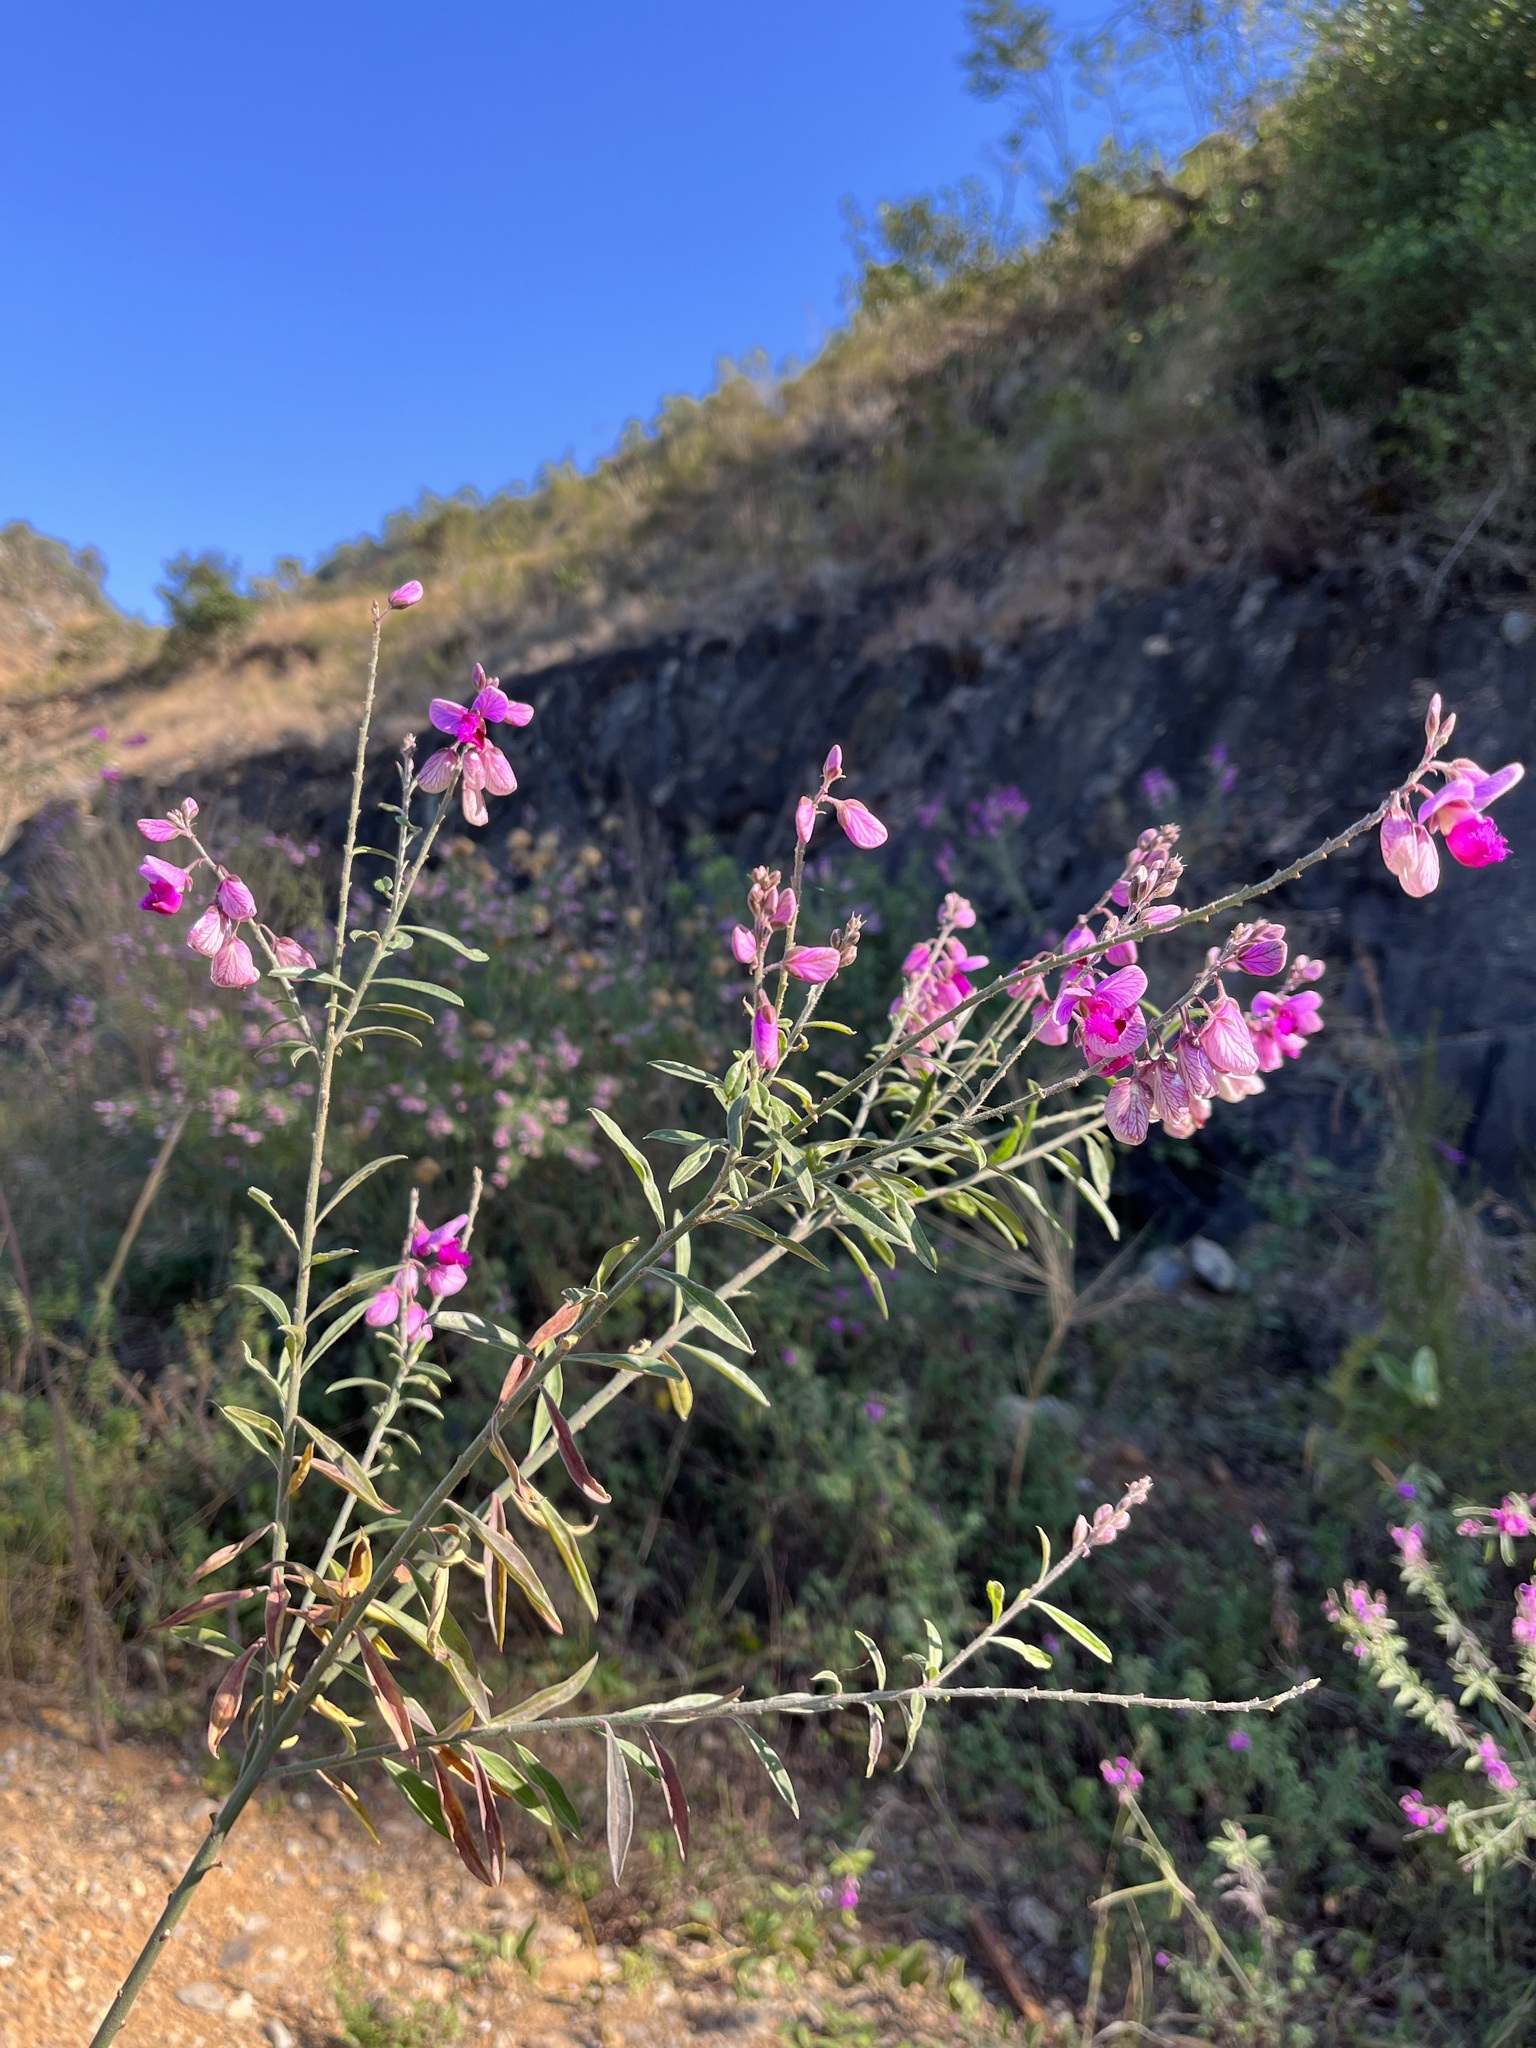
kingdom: Plantae
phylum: Tracheophyta
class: Magnoliopsida
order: Fabales
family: Polygalaceae
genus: Polygala
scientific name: Polygala virgata
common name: Milkwort
